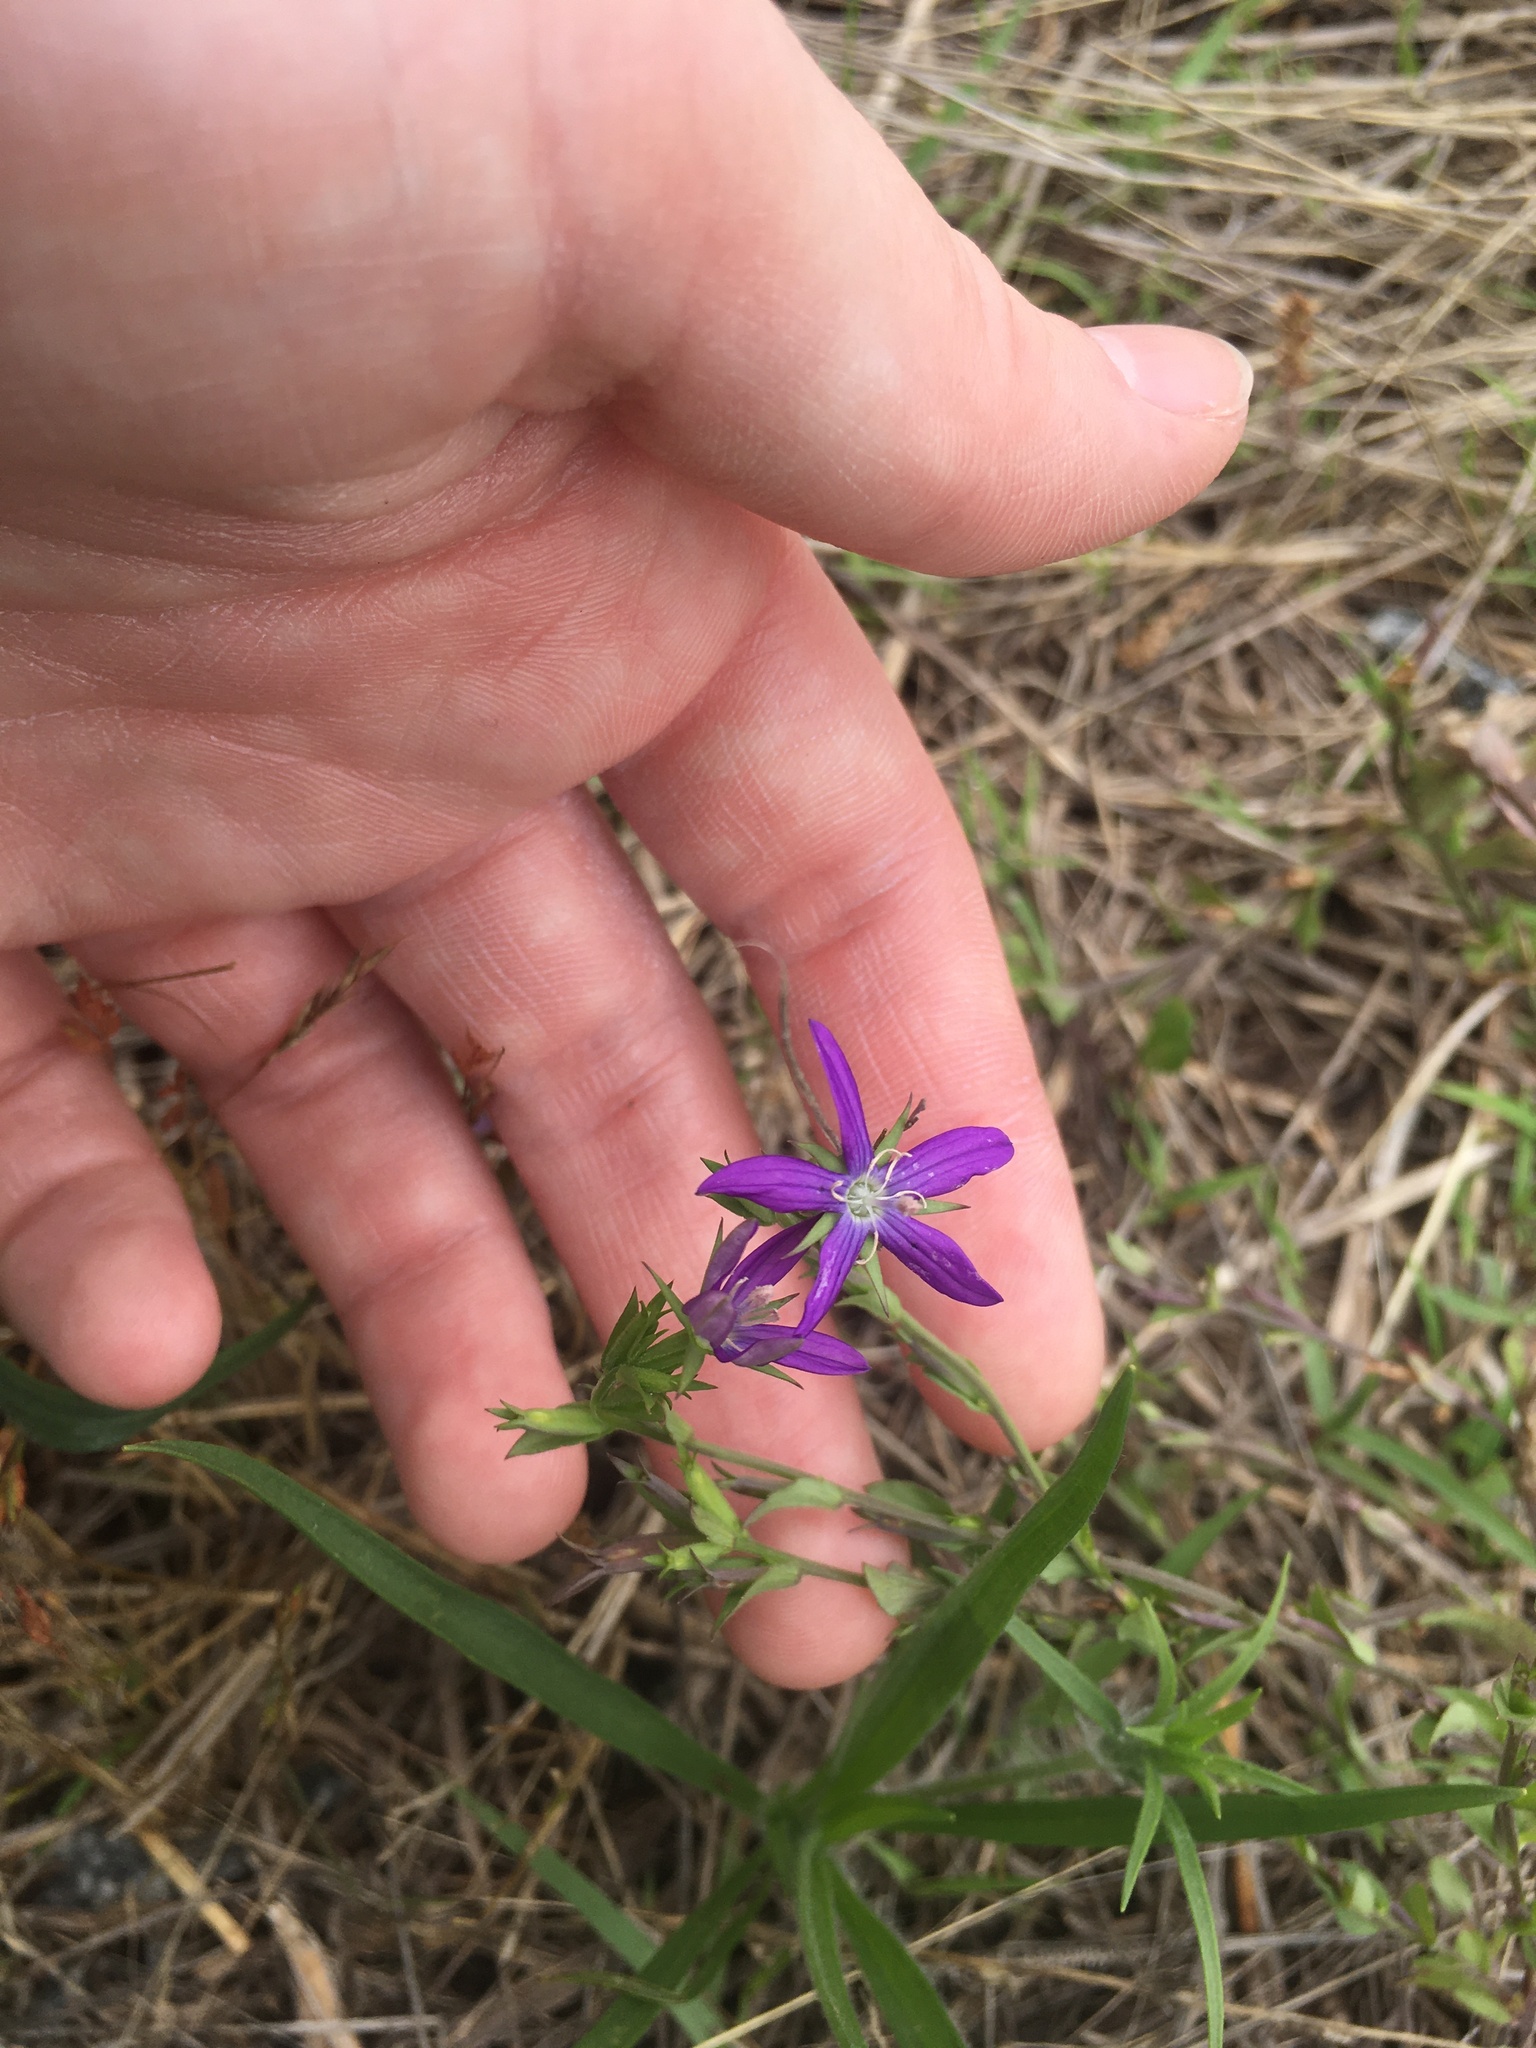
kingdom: Plantae
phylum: Tracheophyta
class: Magnoliopsida
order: Asterales
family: Campanulaceae
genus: Triodanis
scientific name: Triodanis biflora
